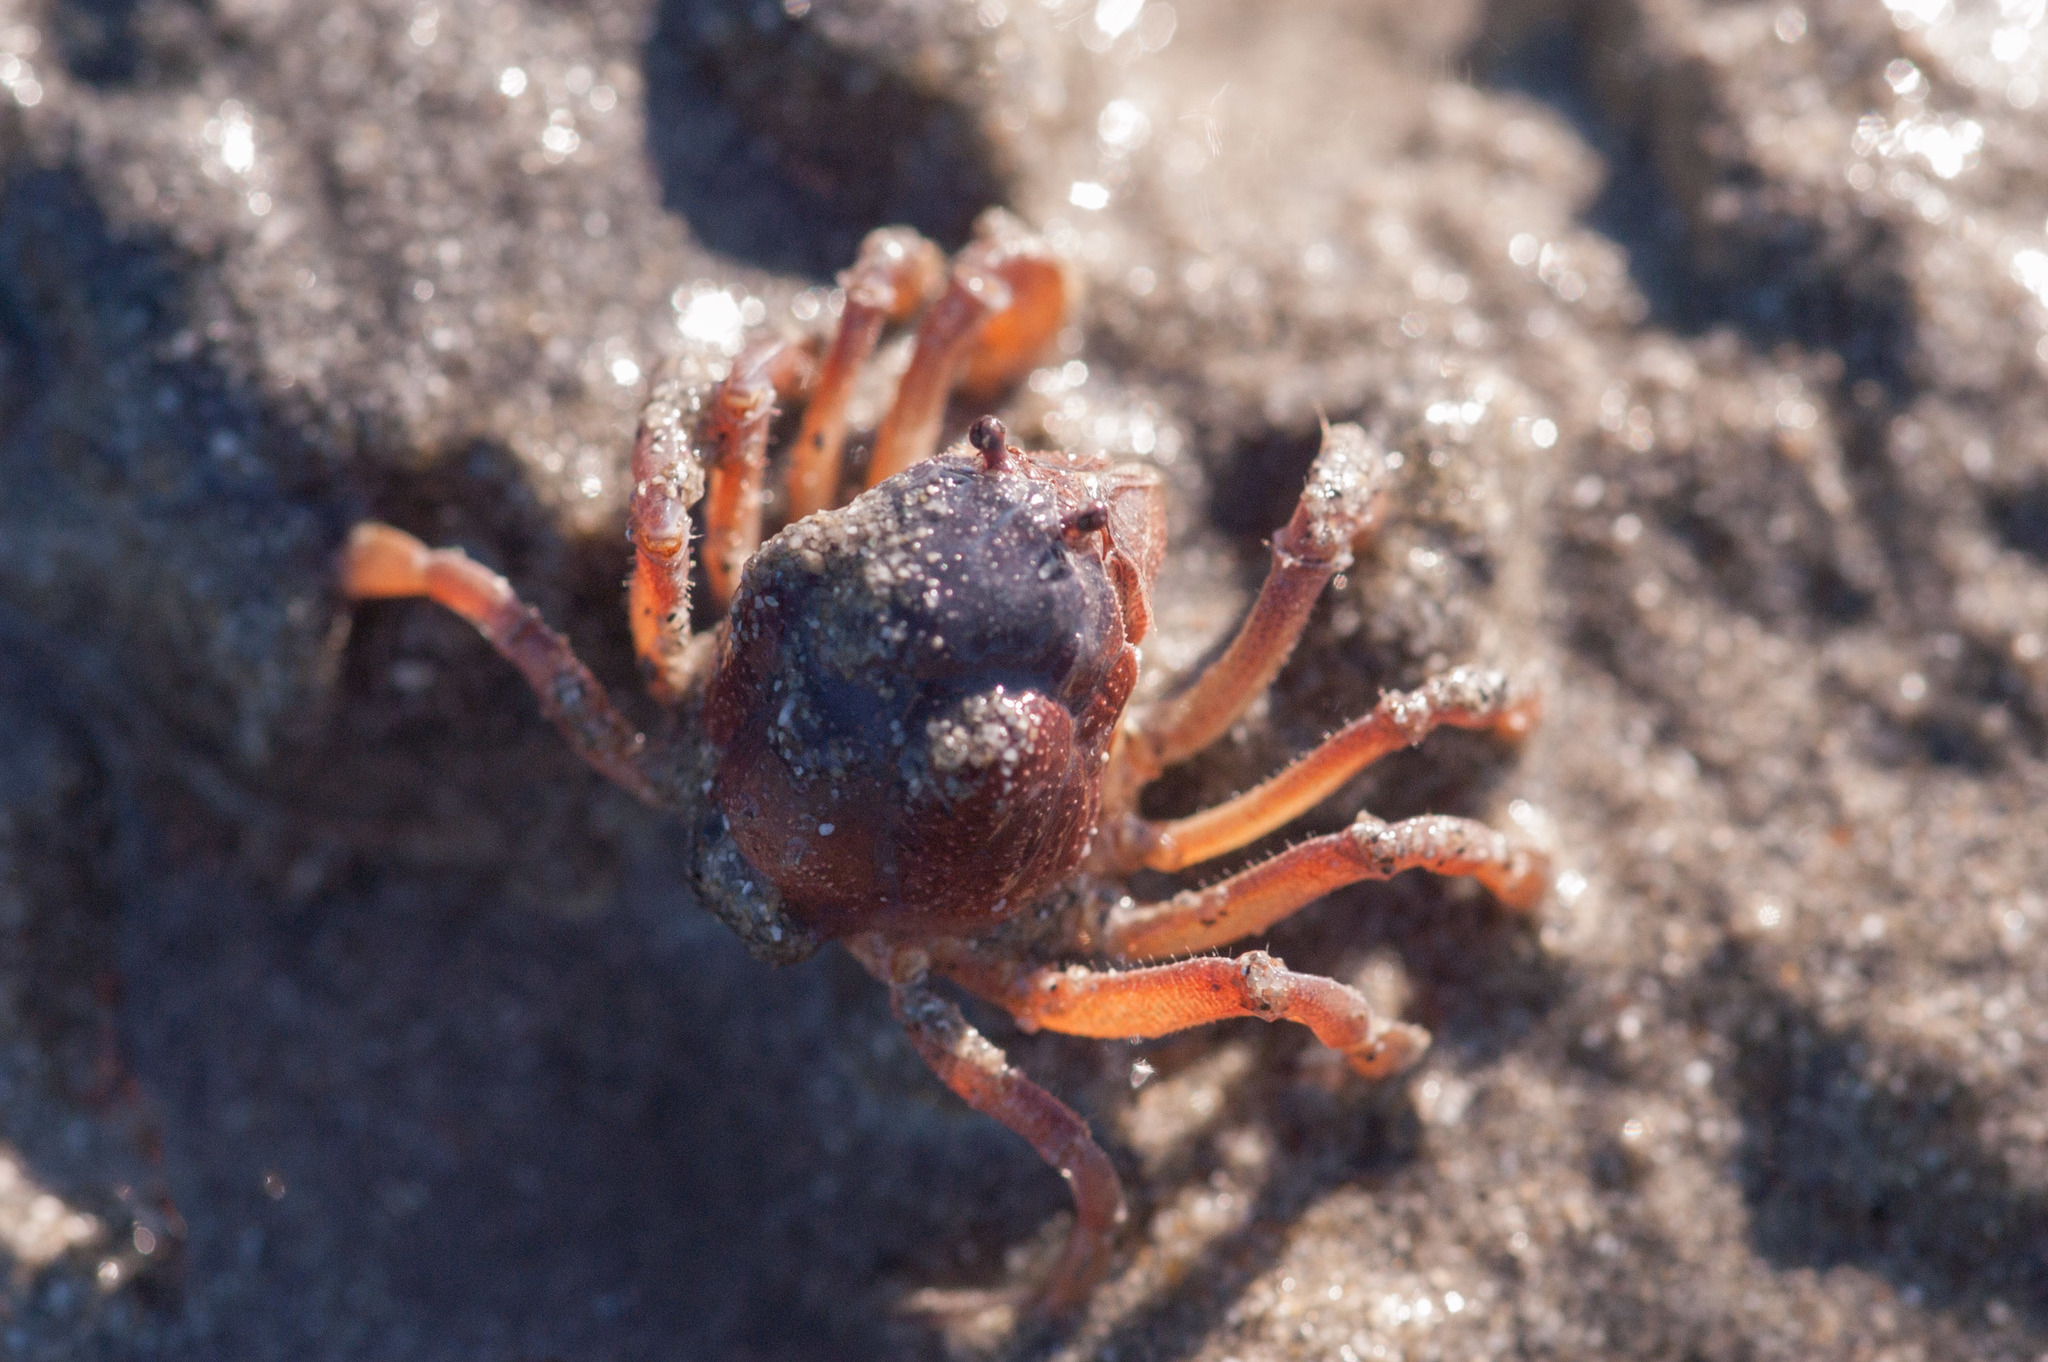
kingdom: Animalia
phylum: Arthropoda
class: Malacostraca
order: Decapoda
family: Mictyridae
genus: Mictyris
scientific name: Mictyris platycheles
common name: Dark blue soldier crab
